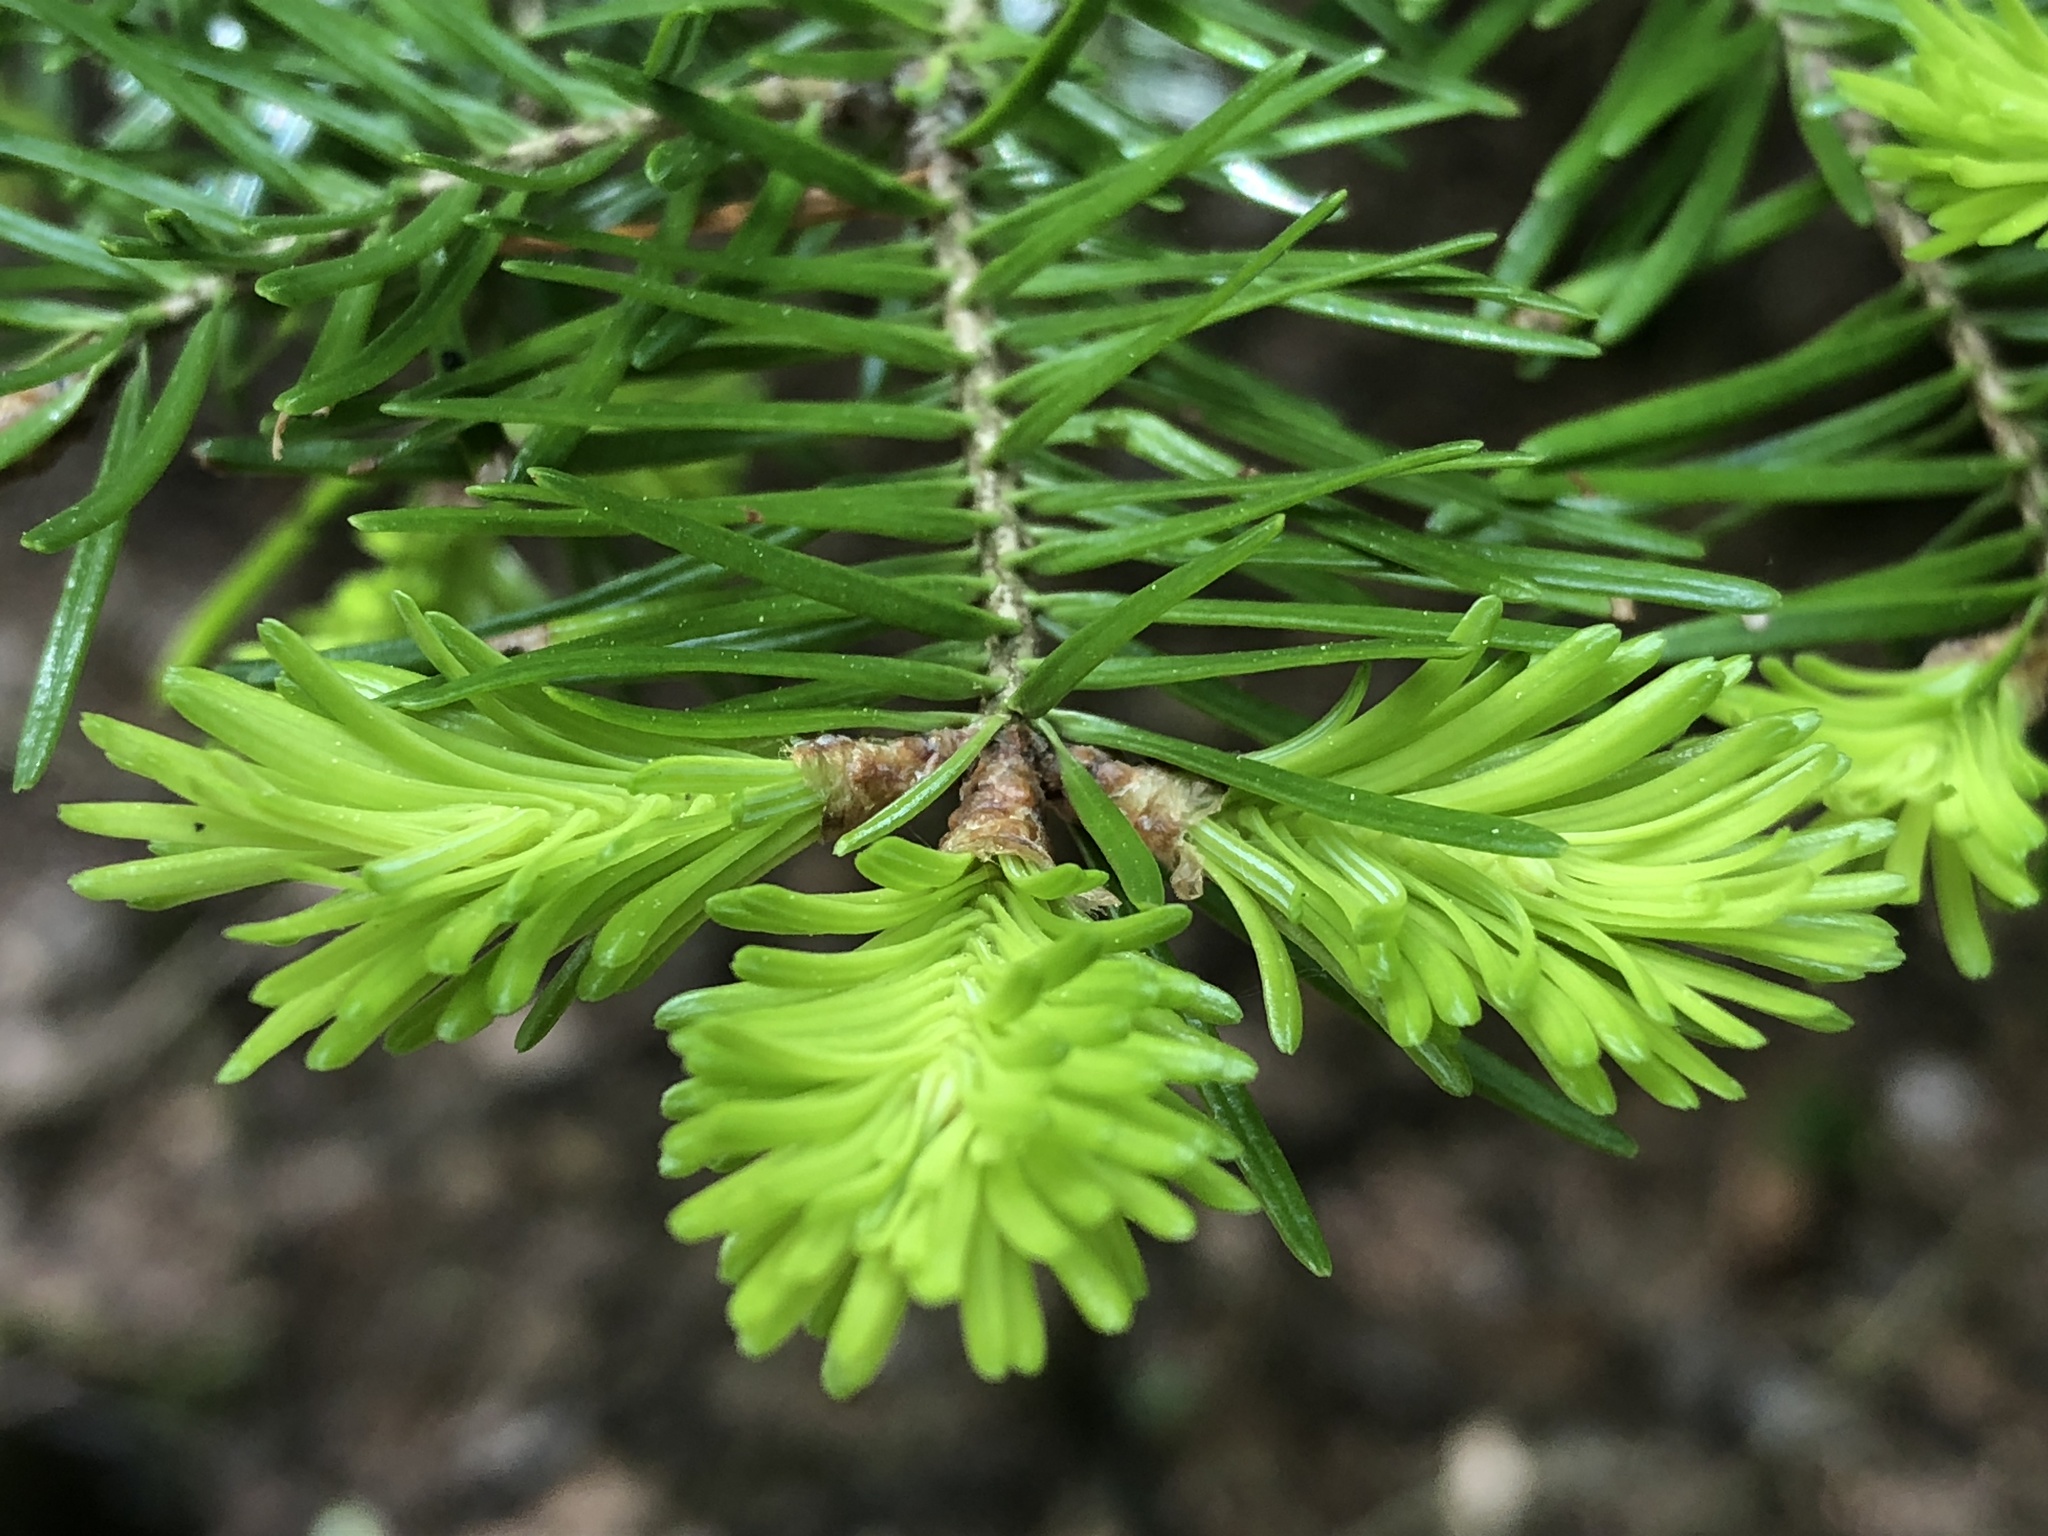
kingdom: Plantae
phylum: Tracheophyta
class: Pinopsida
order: Pinales
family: Pinaceae
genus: Abies
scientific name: Abies balsamea
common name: Balsam fir
